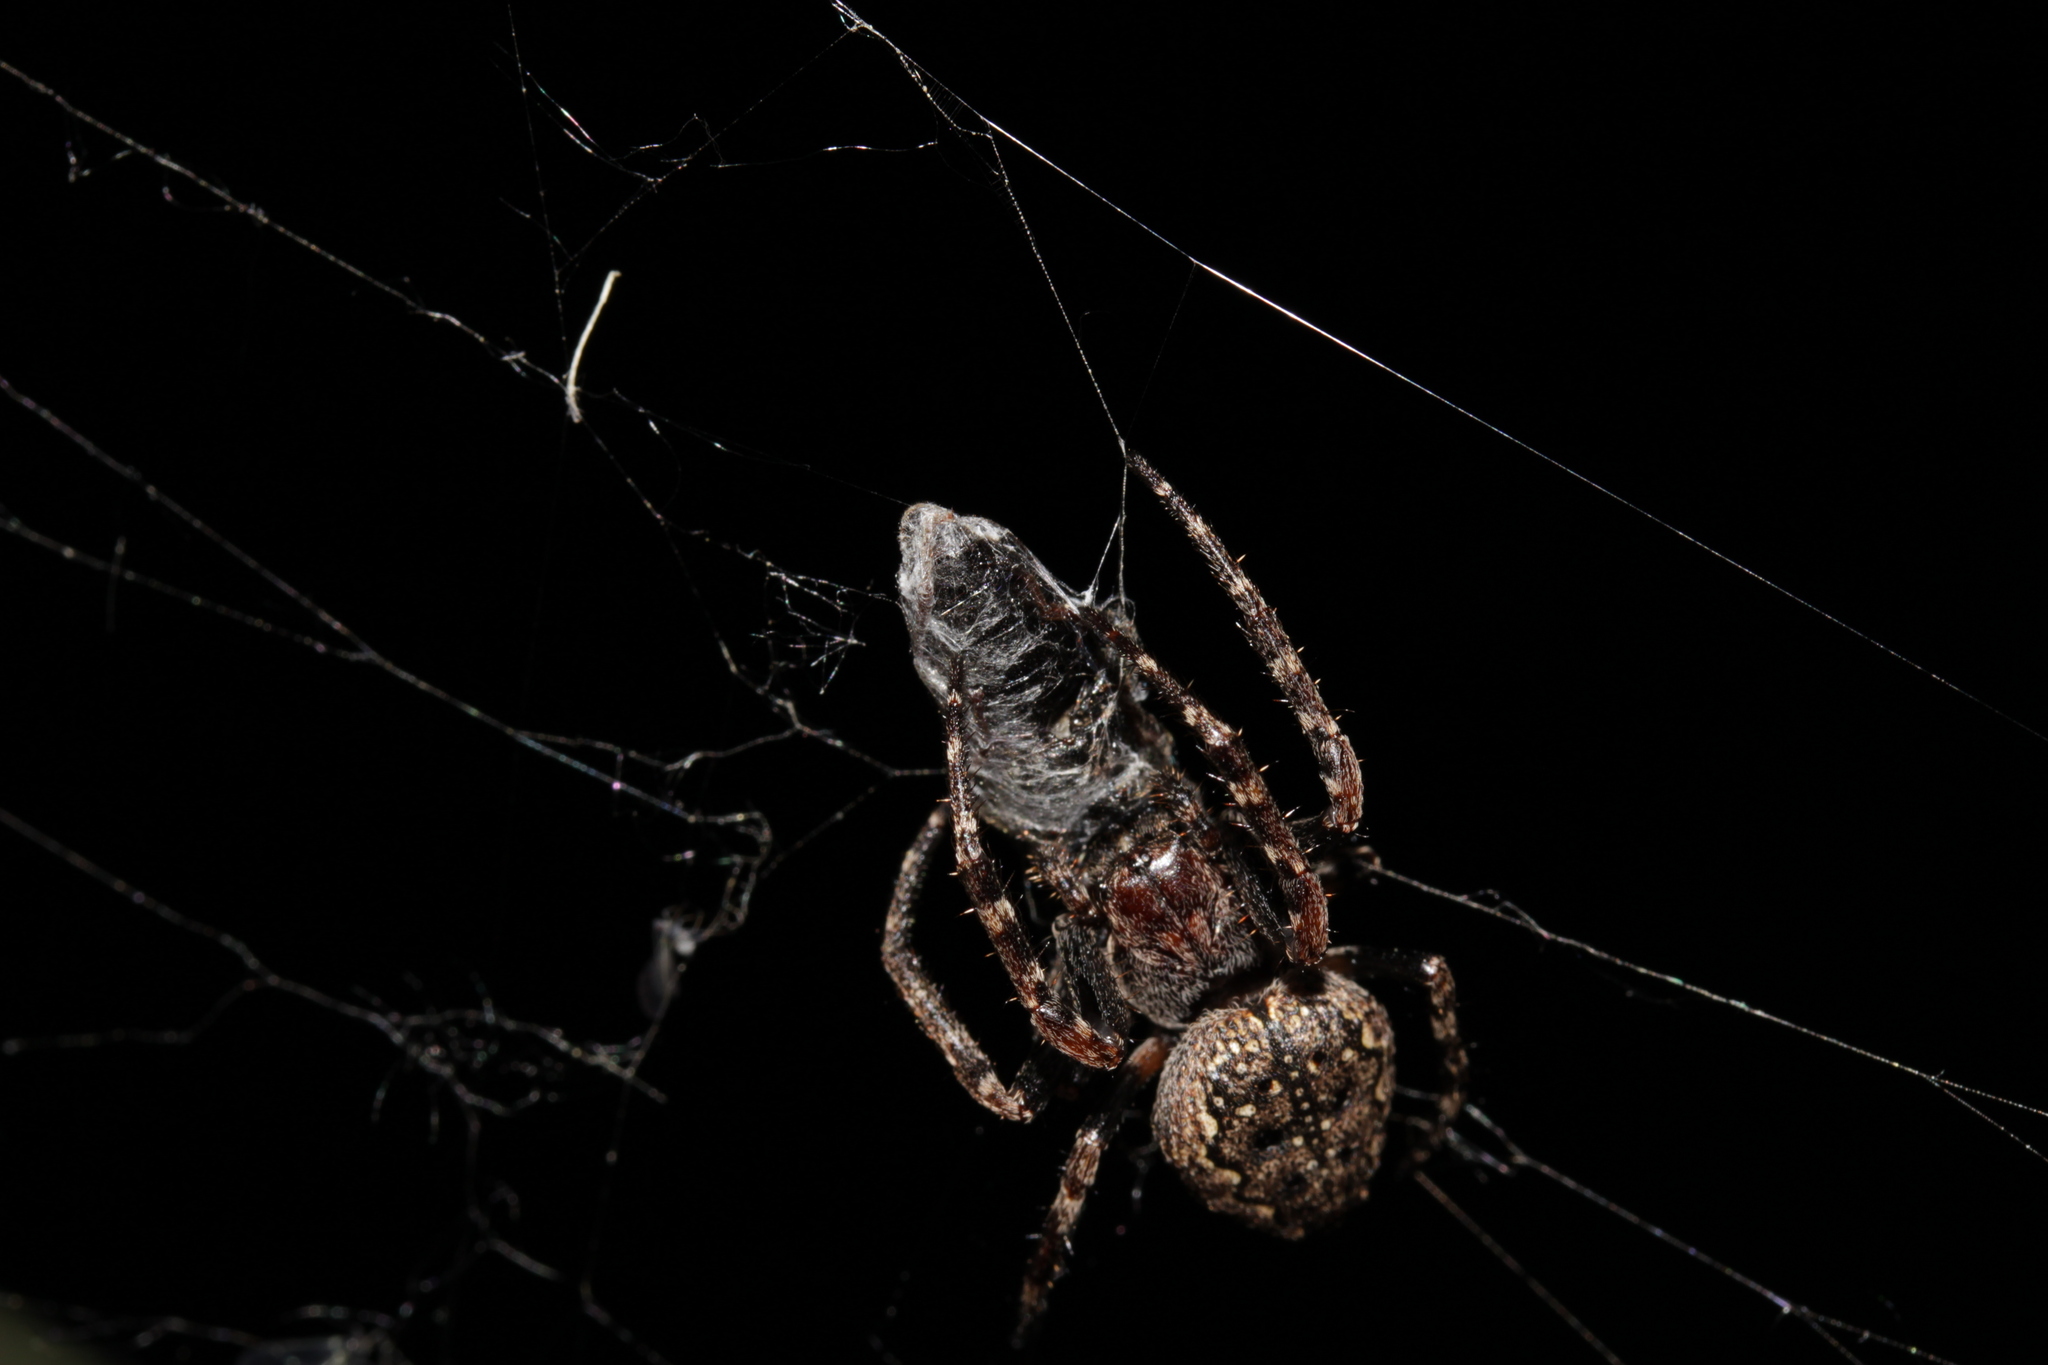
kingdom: Animalia
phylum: Arthropoda
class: Arachnida
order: Araneae
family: Araneidae
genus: Nuctenea
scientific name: Nuctenea umbratica
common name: Toad spider
